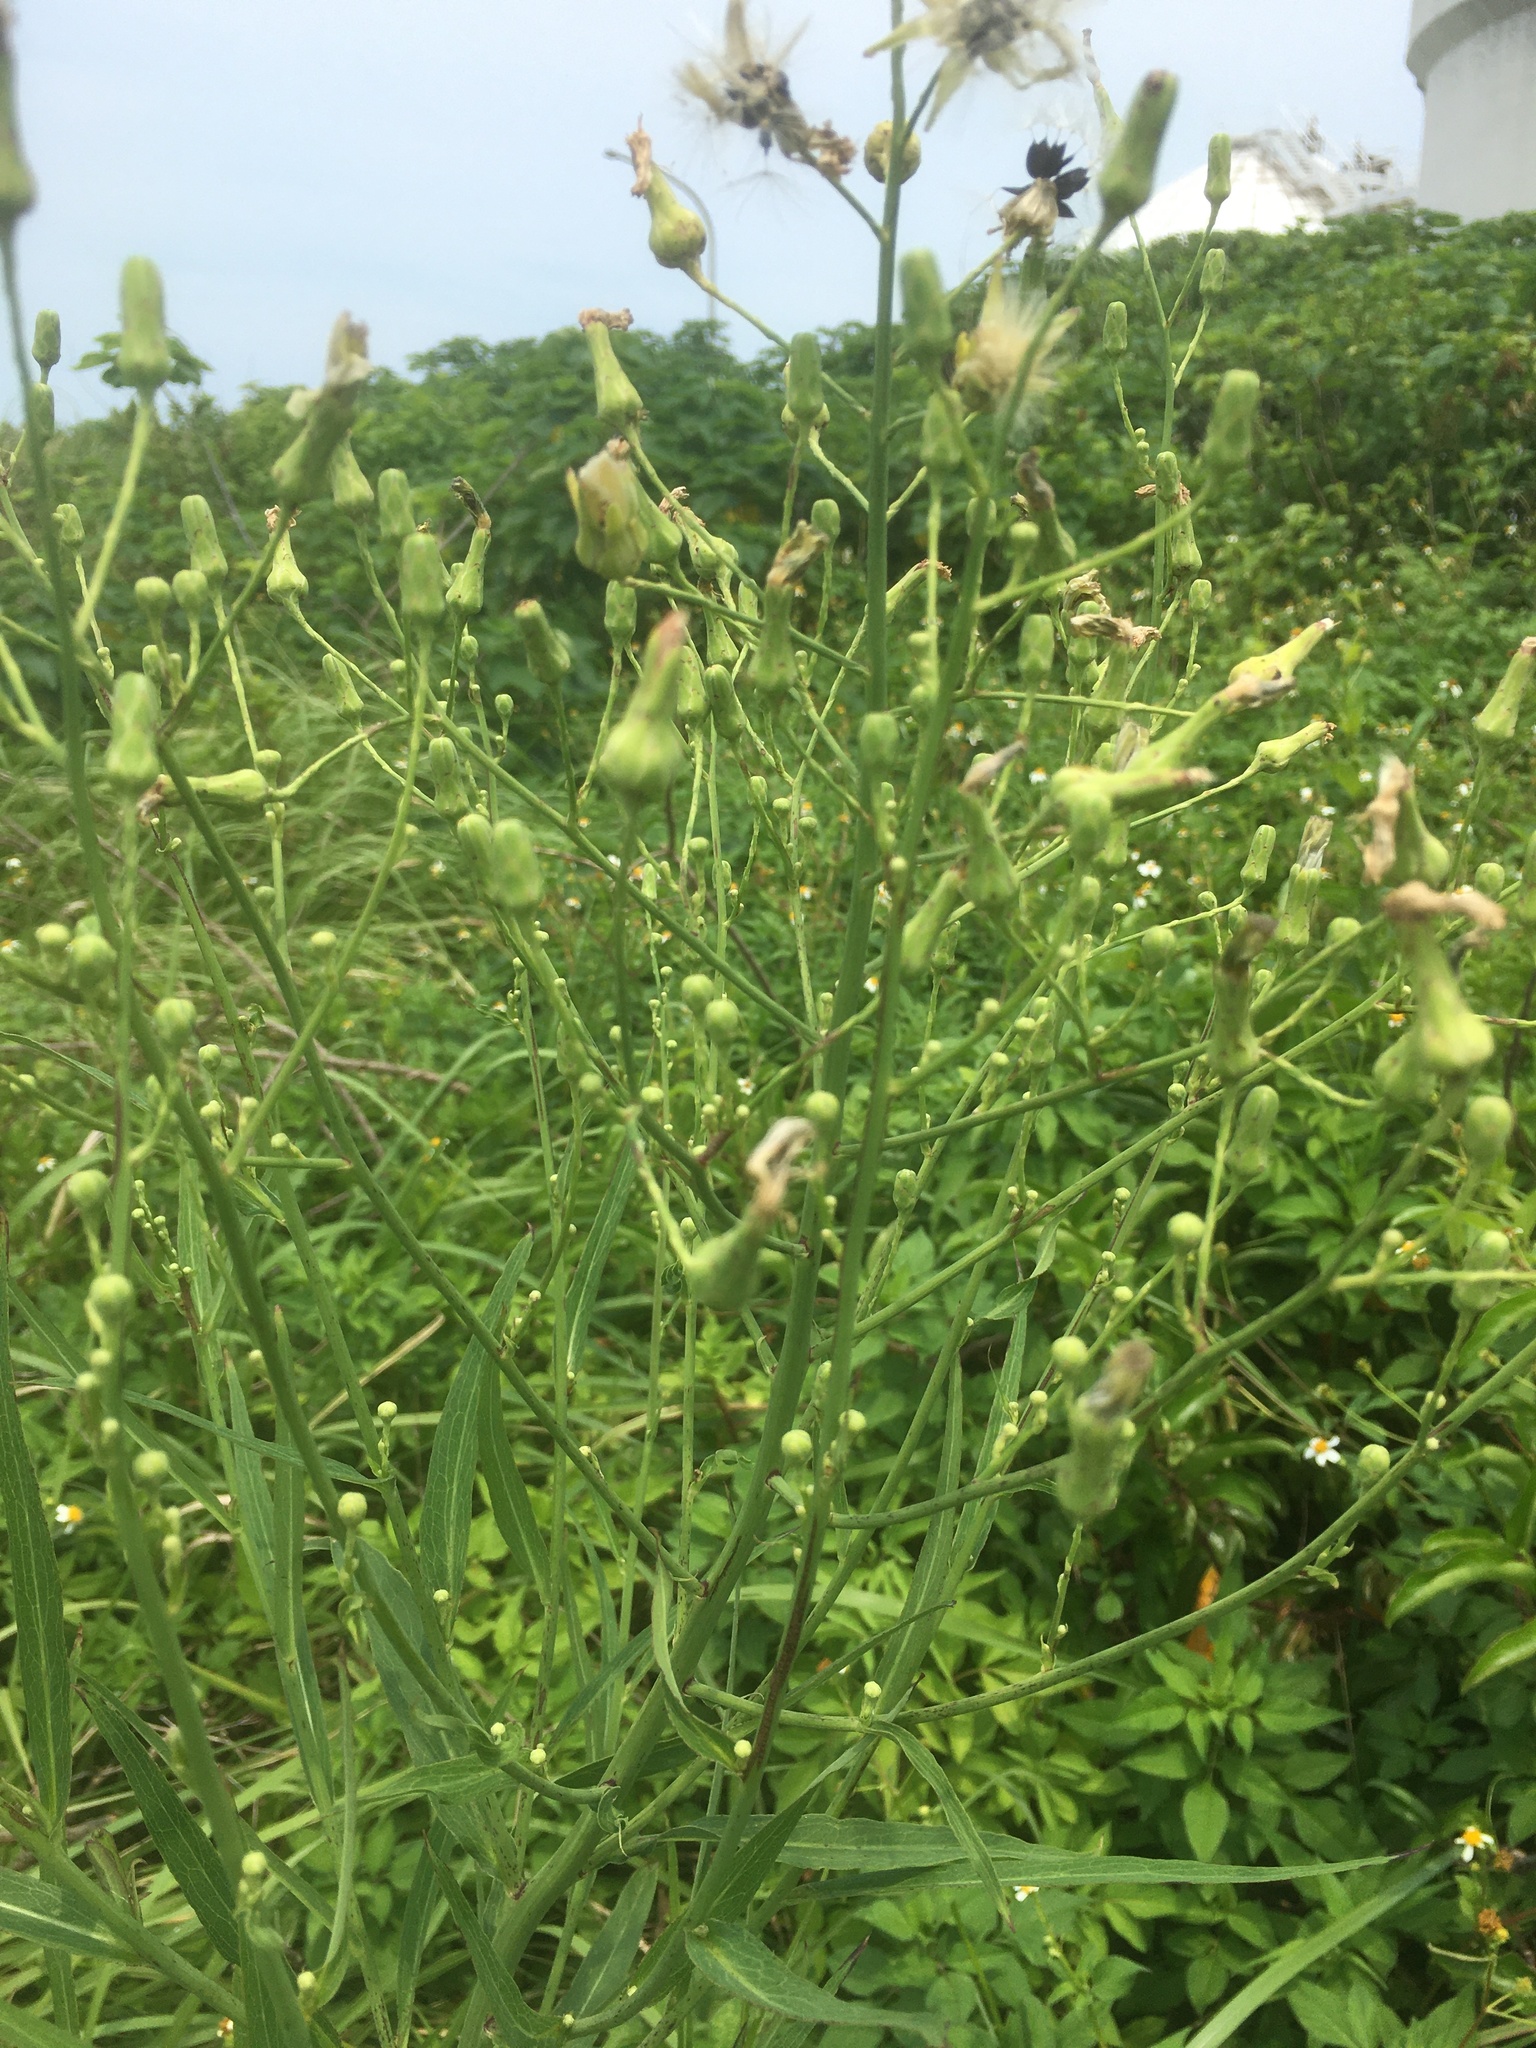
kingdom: Plantae
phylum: Tracheophyta
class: Magnoliopsida
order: Asterales
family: Asteraceae
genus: Lactuca
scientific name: Lactuca indica
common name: Wild lettuce
